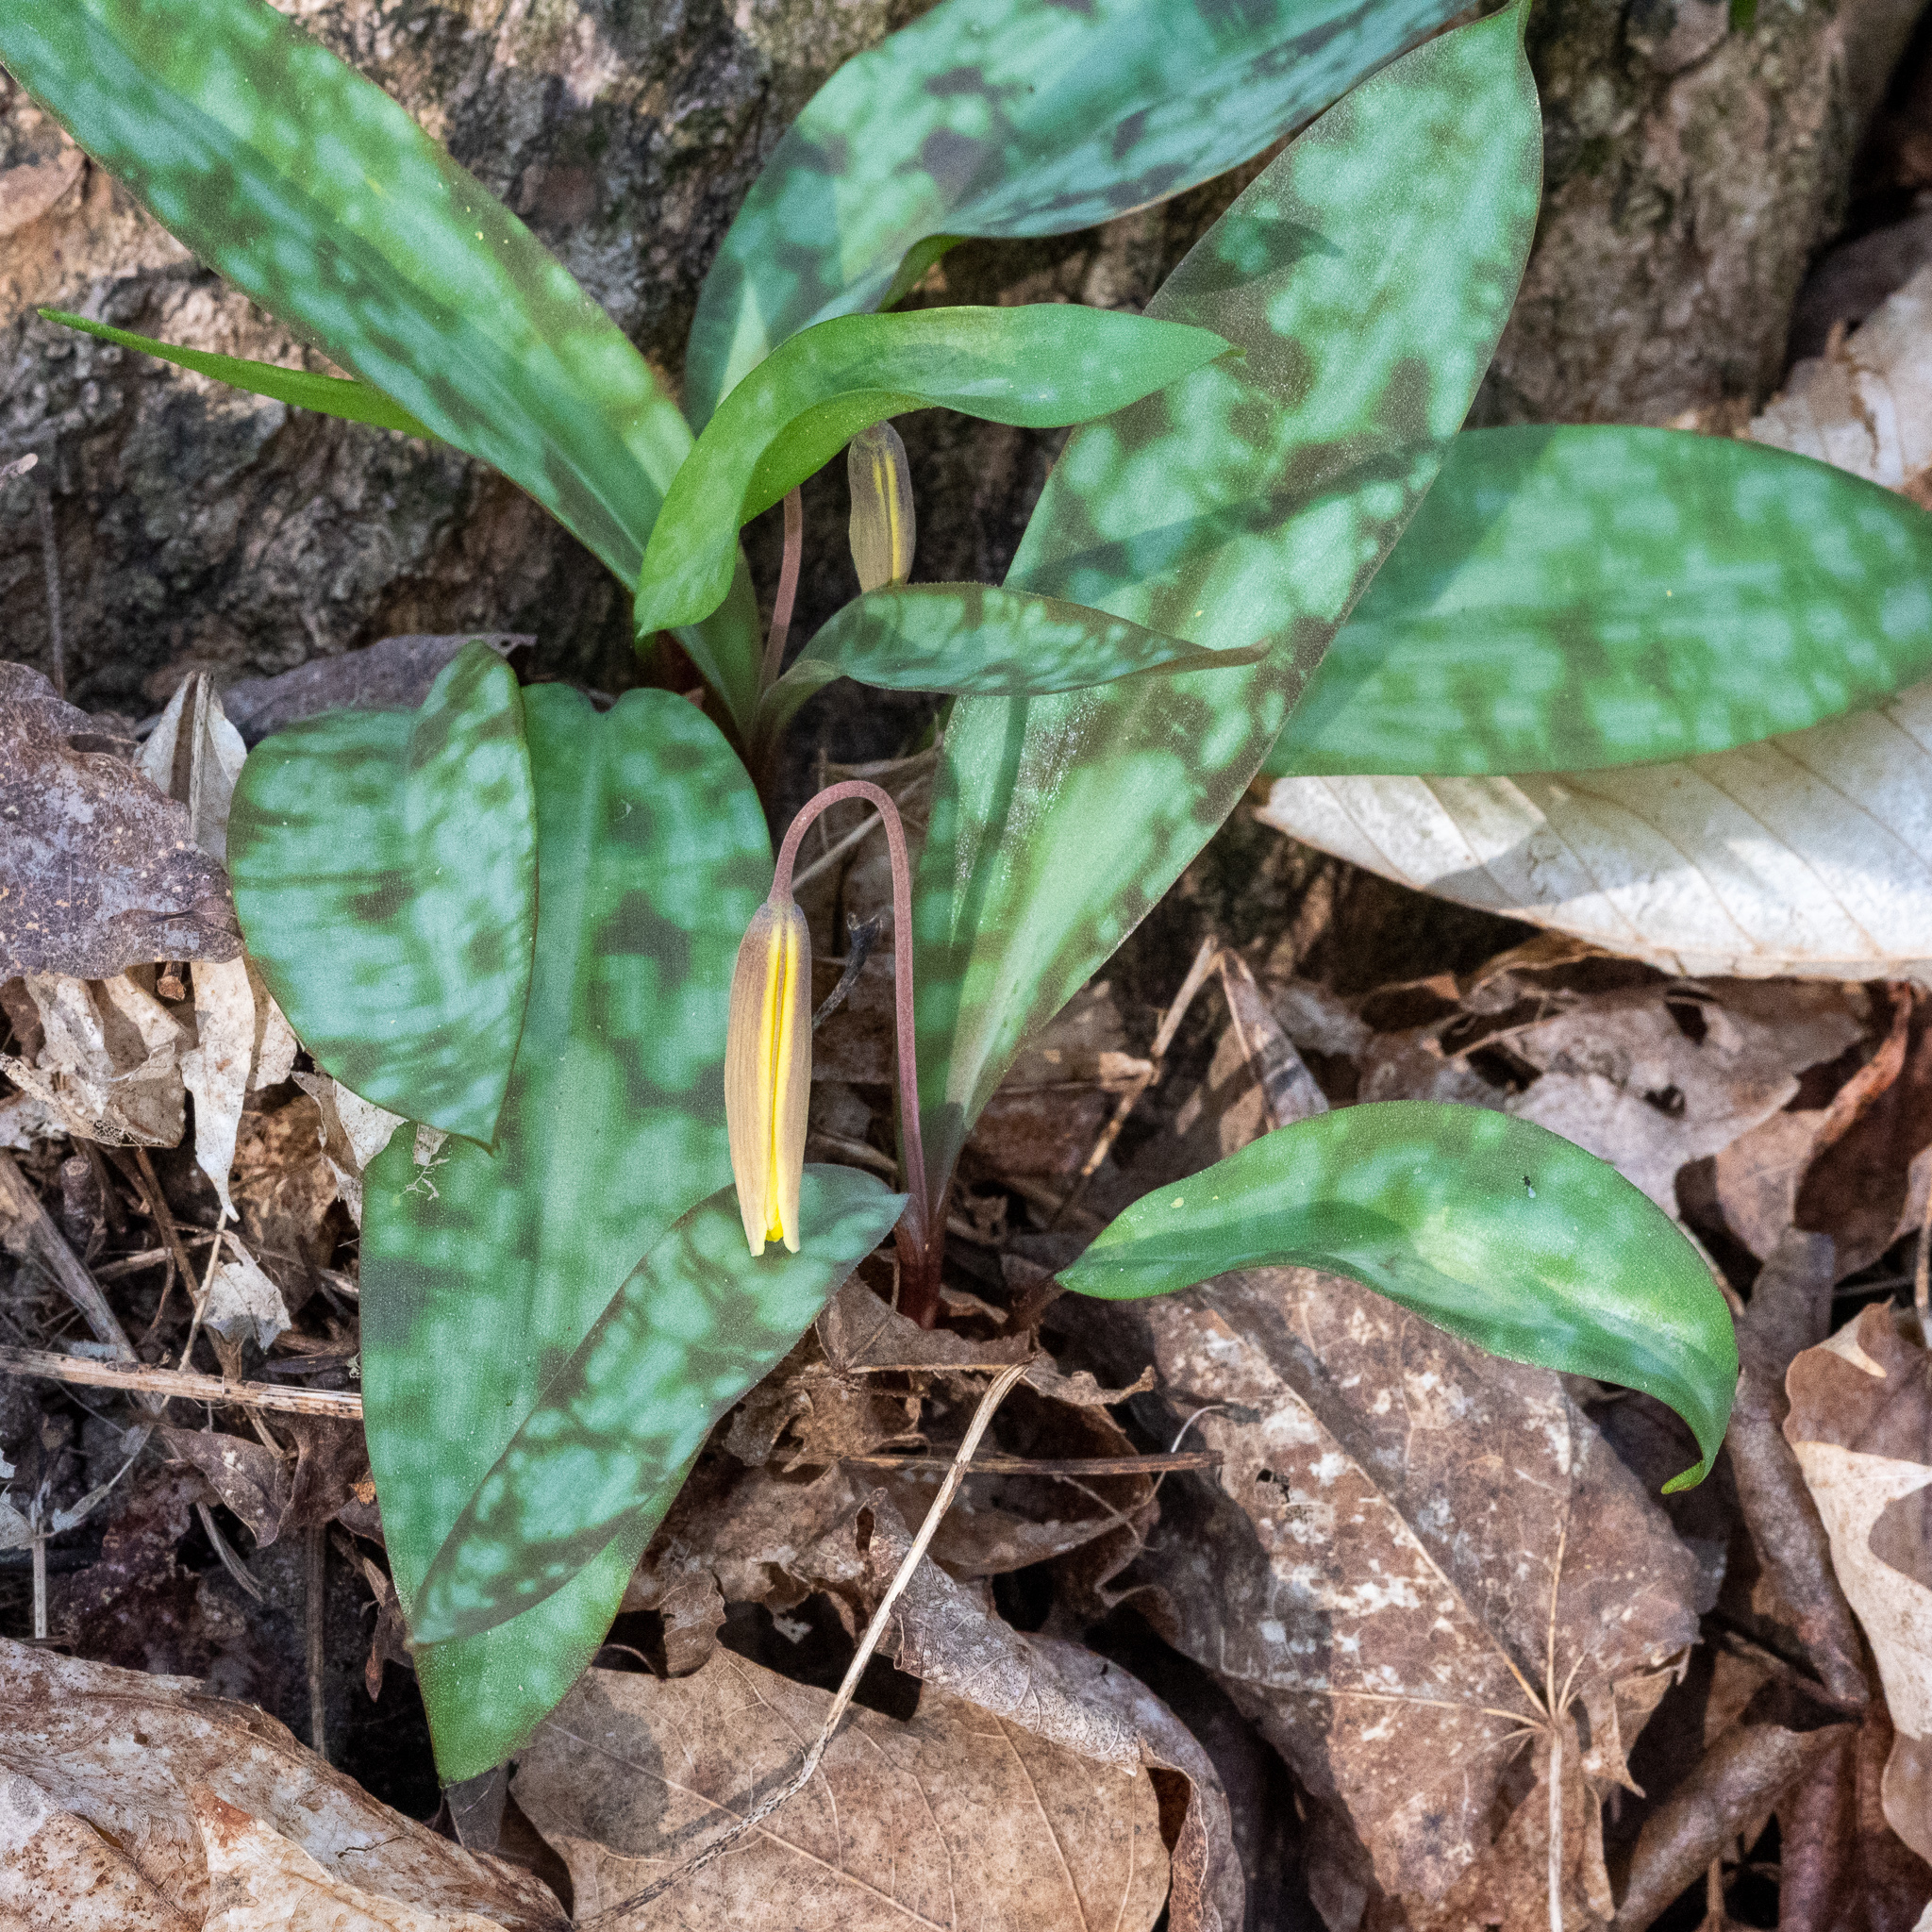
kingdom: Plantae
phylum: Tracheophyta
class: Liliopsida
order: Liliales
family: Liliaceae
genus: Erythronium
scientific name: Erythronium americanum
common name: Yellow adder's-tongue
